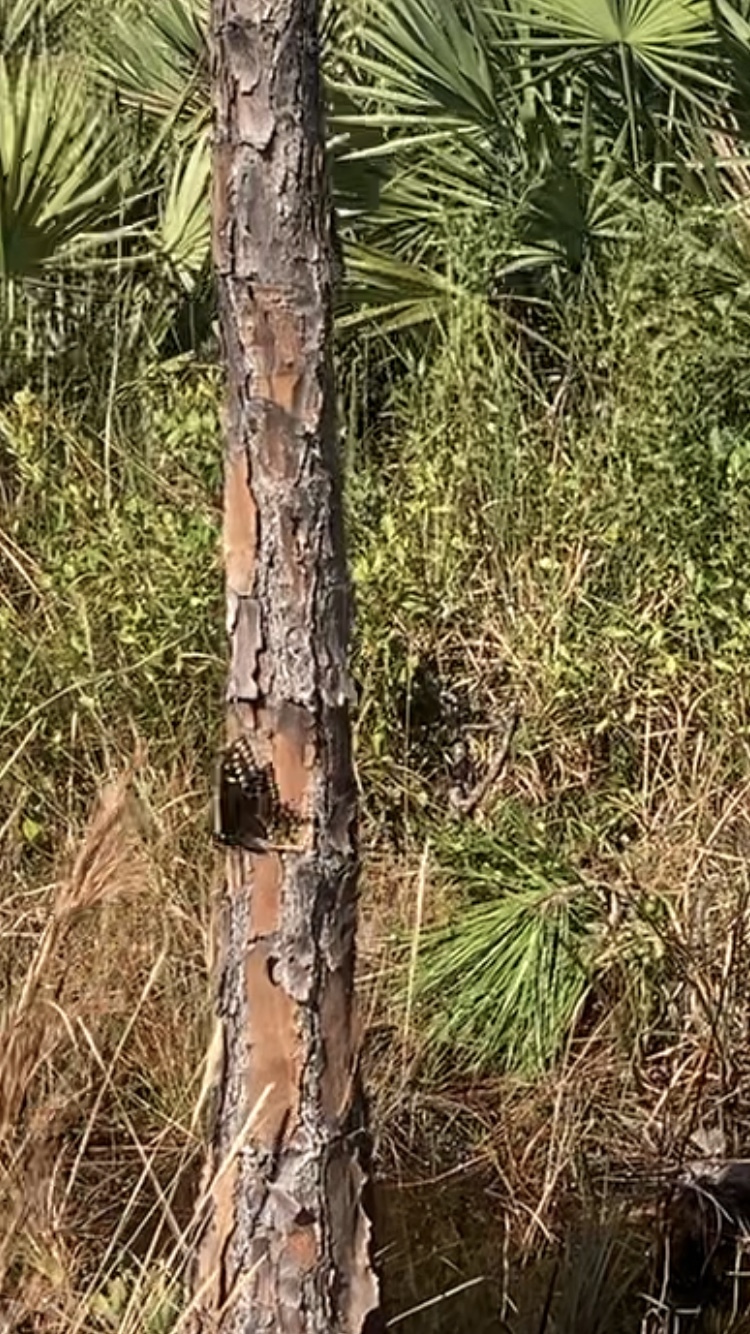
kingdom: Animalia
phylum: Arthropoda
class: Insecta
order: Lepidoptera
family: Papilionidae
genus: Papilio
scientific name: Papilio polyxenes
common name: Black swallowtail
